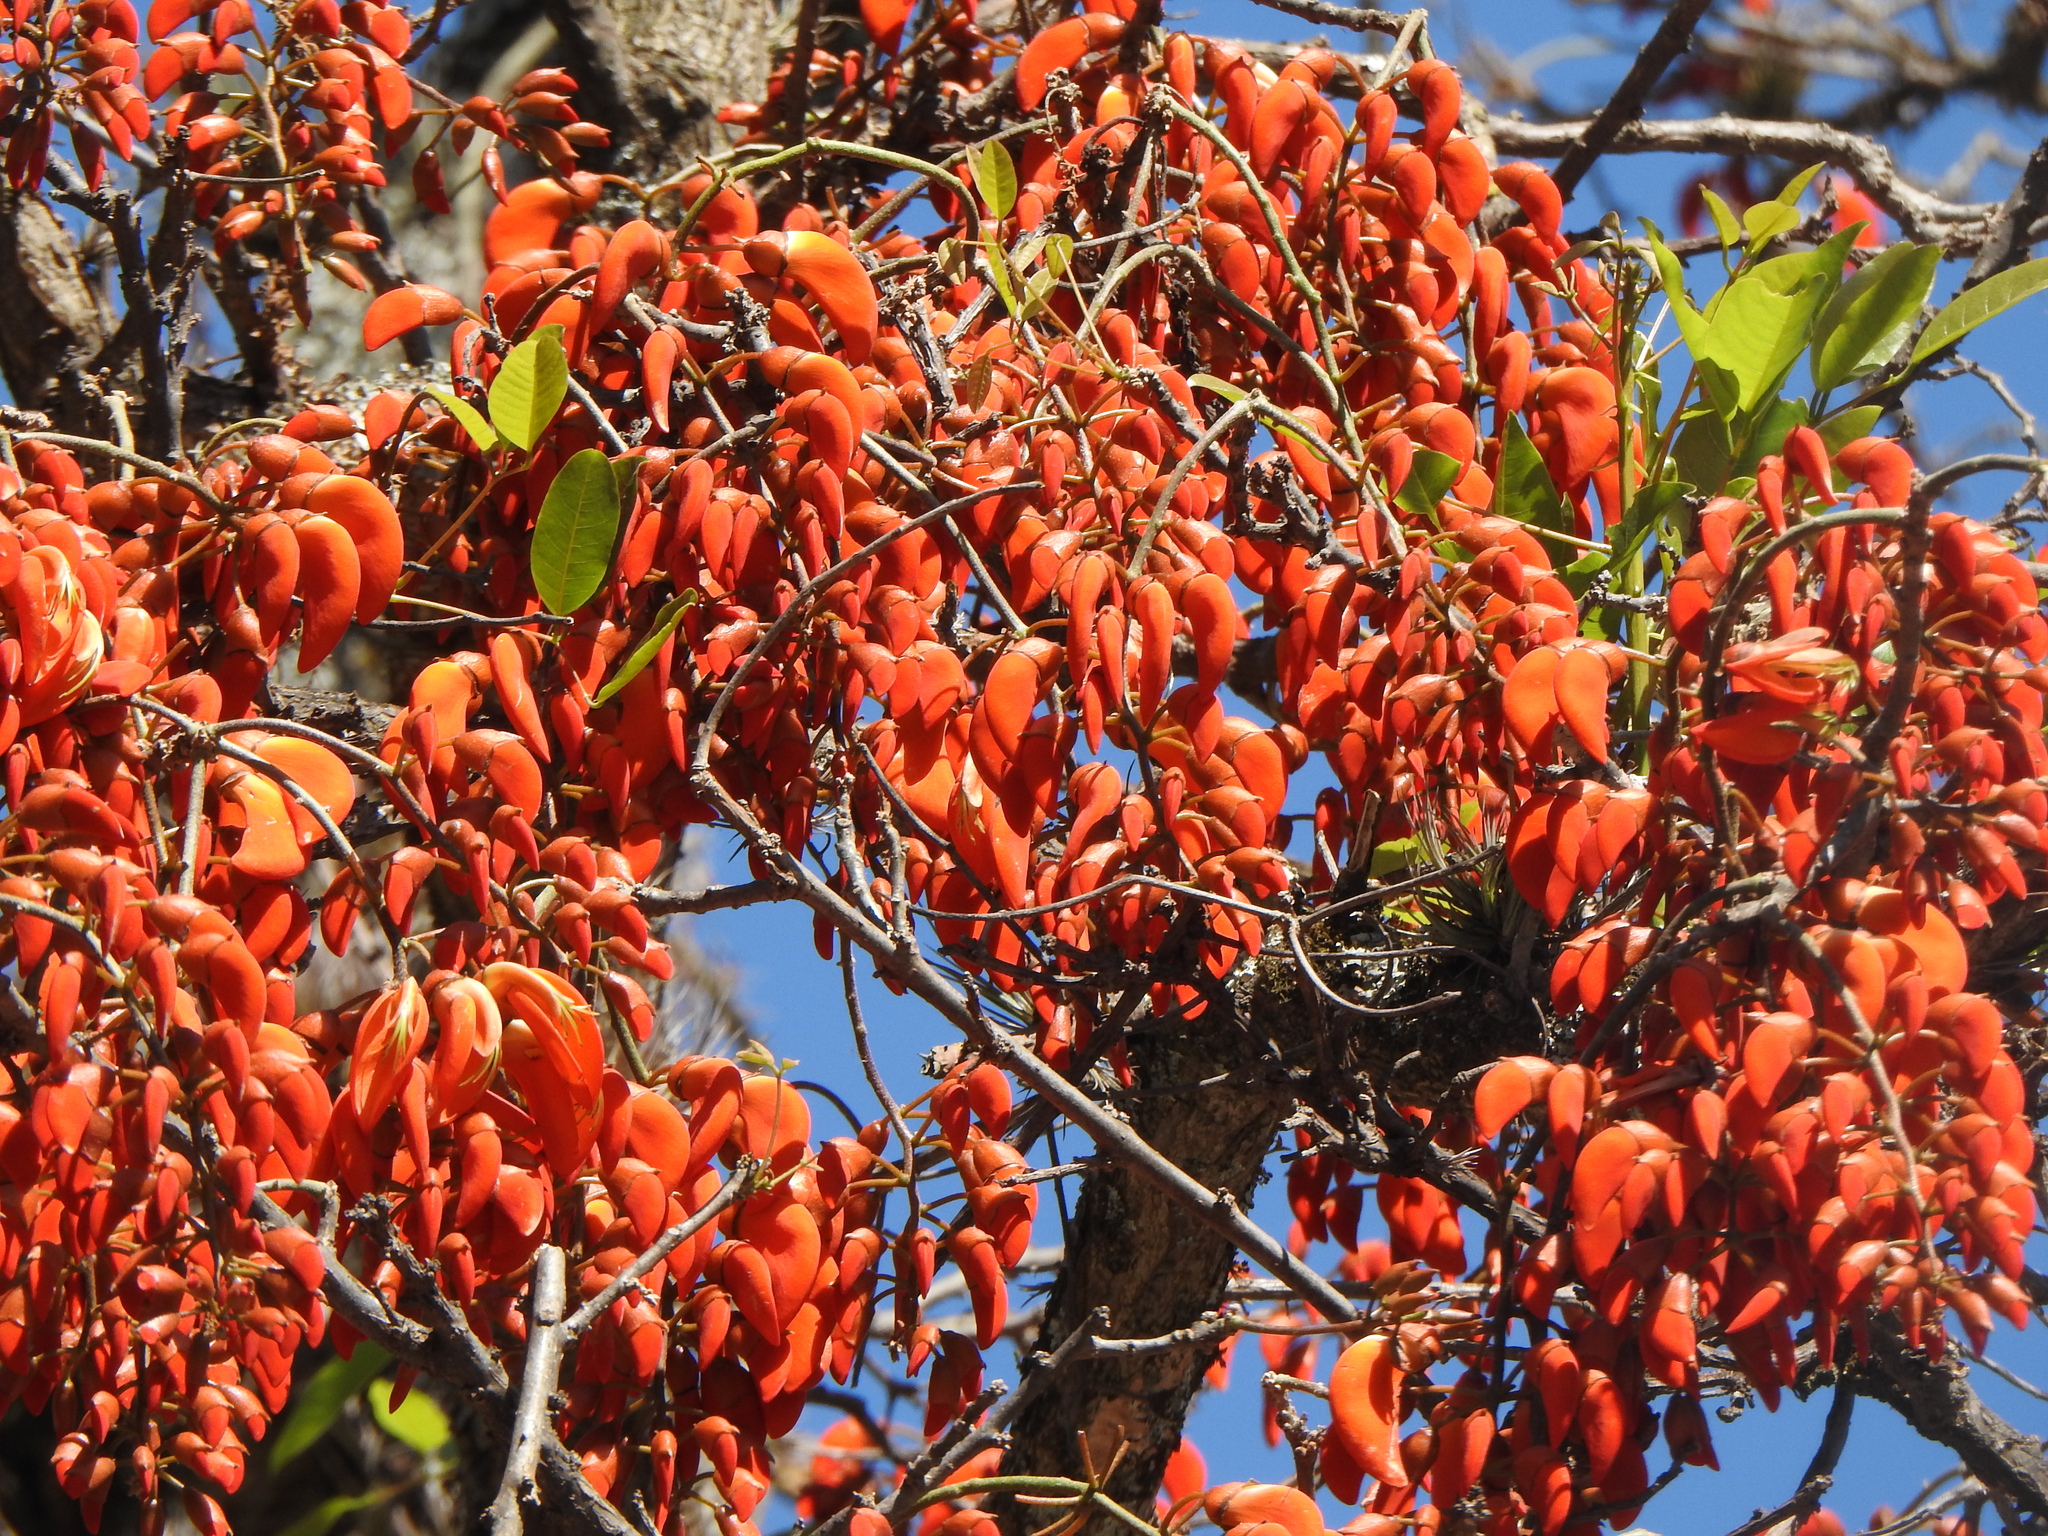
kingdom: Plantae
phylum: Tracheophyta
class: Magnoliopsida
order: Fabales
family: Fabaceae
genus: Erythrina
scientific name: Erythrina falcata
